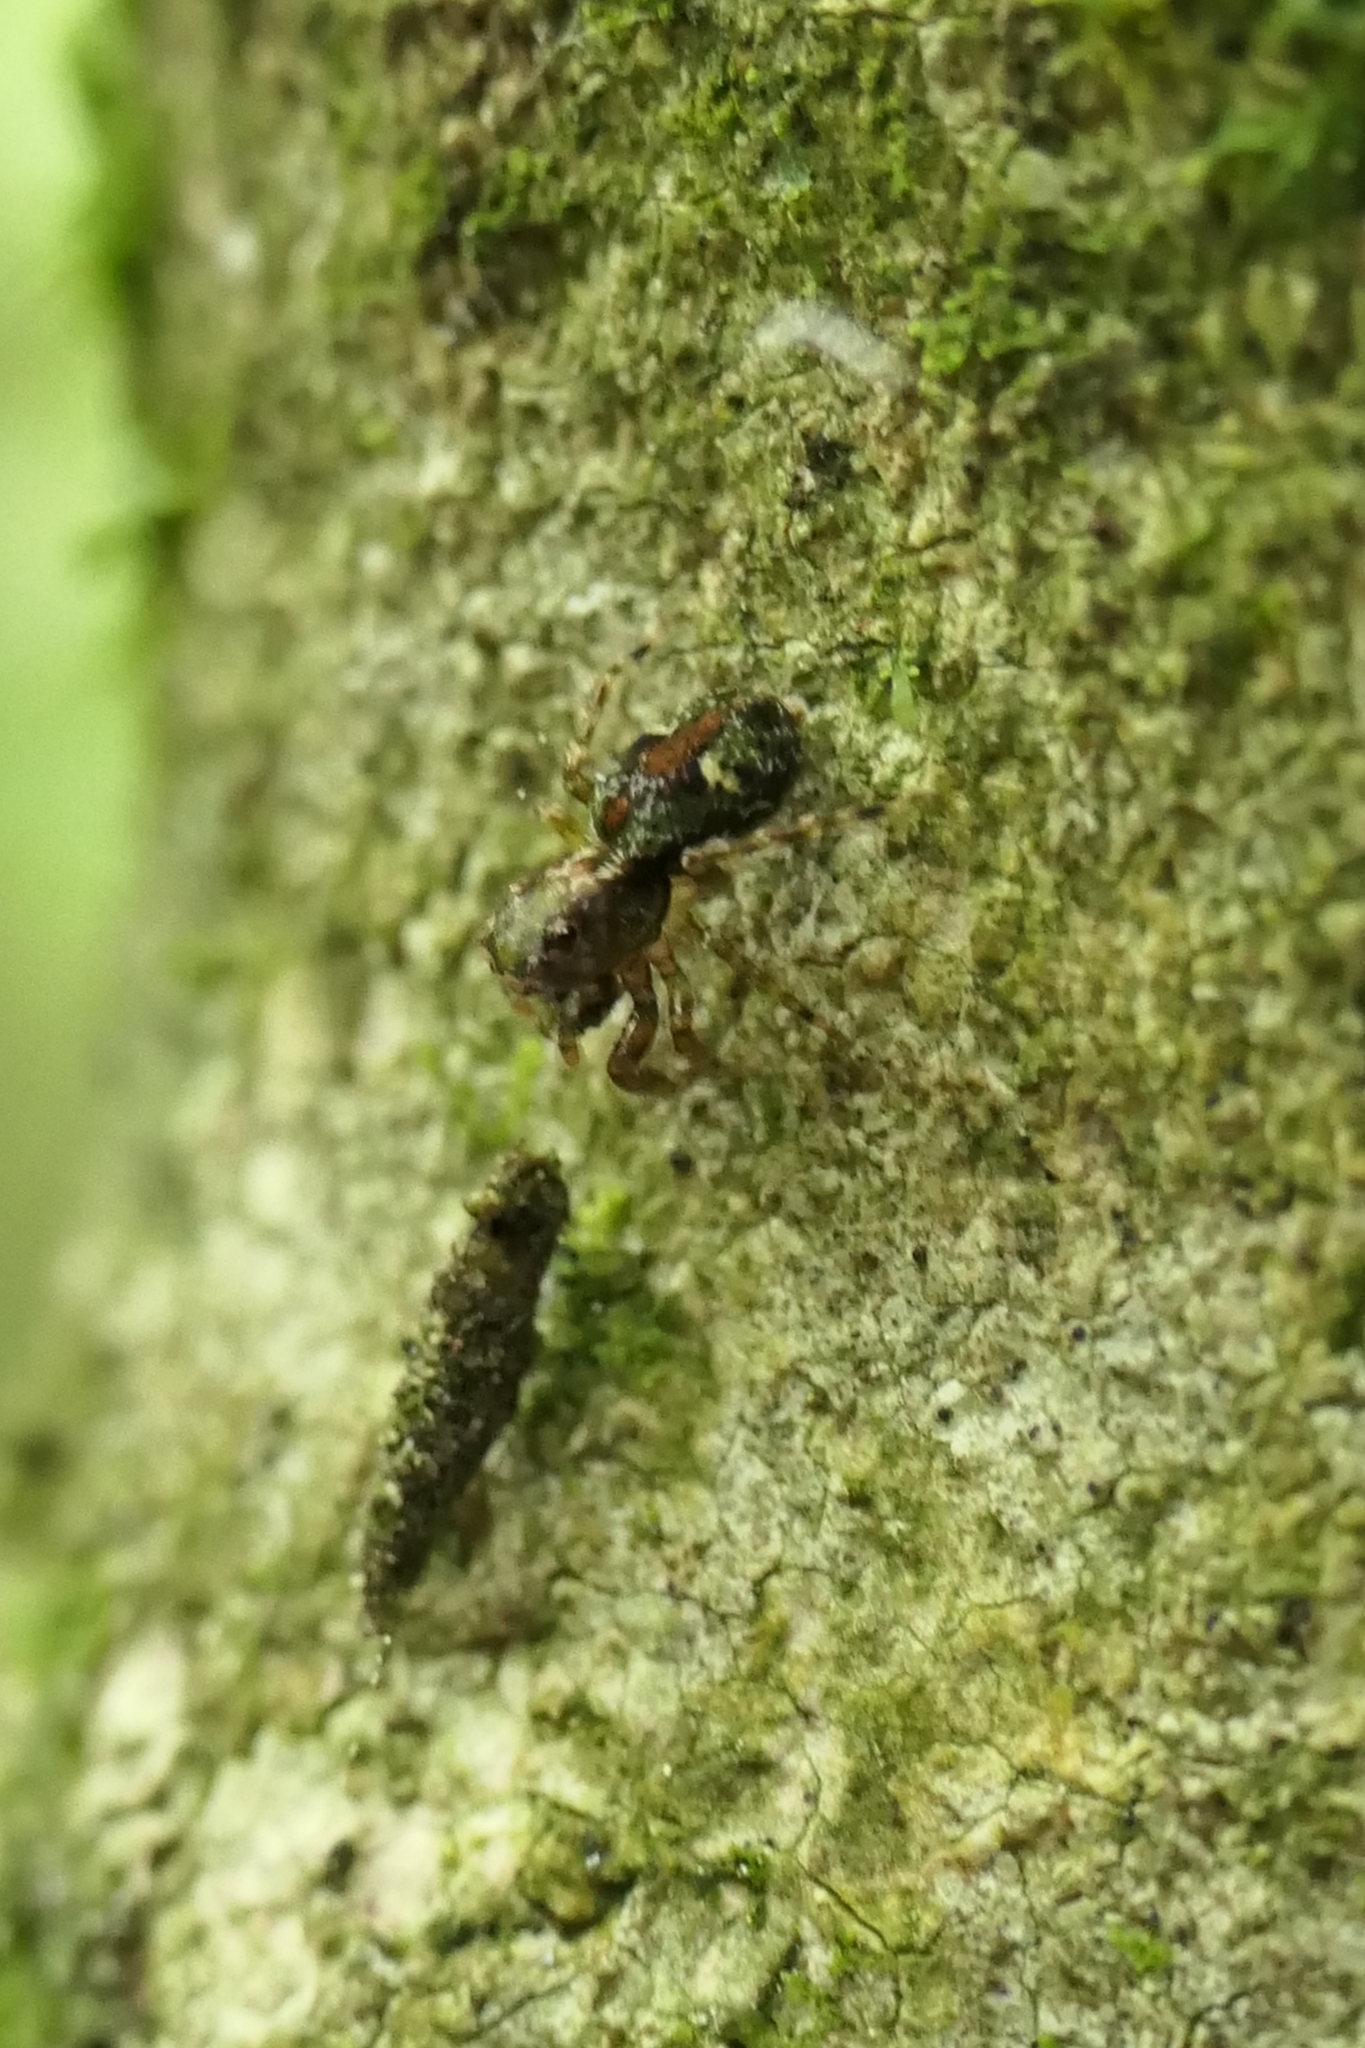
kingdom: Animalia
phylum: Arthropoda
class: Arachnida
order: Araneae
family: Salticidae
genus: Hinewaia
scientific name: Hinewaia embolica
